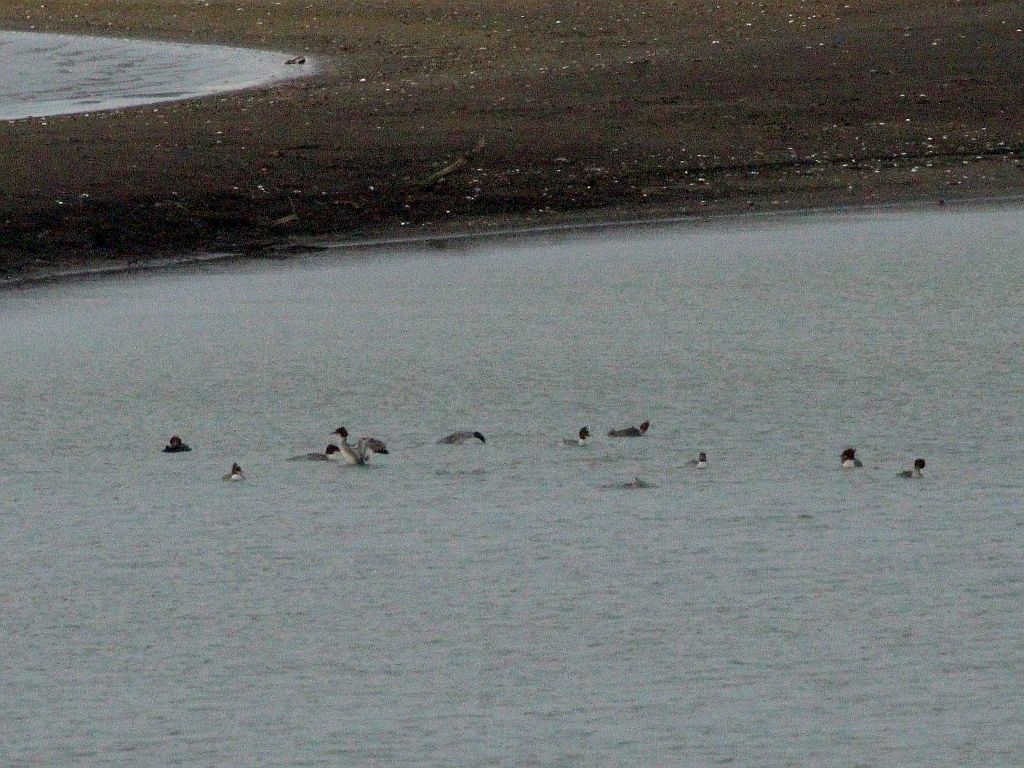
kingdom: Animalia
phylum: Chordata
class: Aves
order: Anseriformes
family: Anatidae
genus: Mergus
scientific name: Mergus merganser
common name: Common merganser
